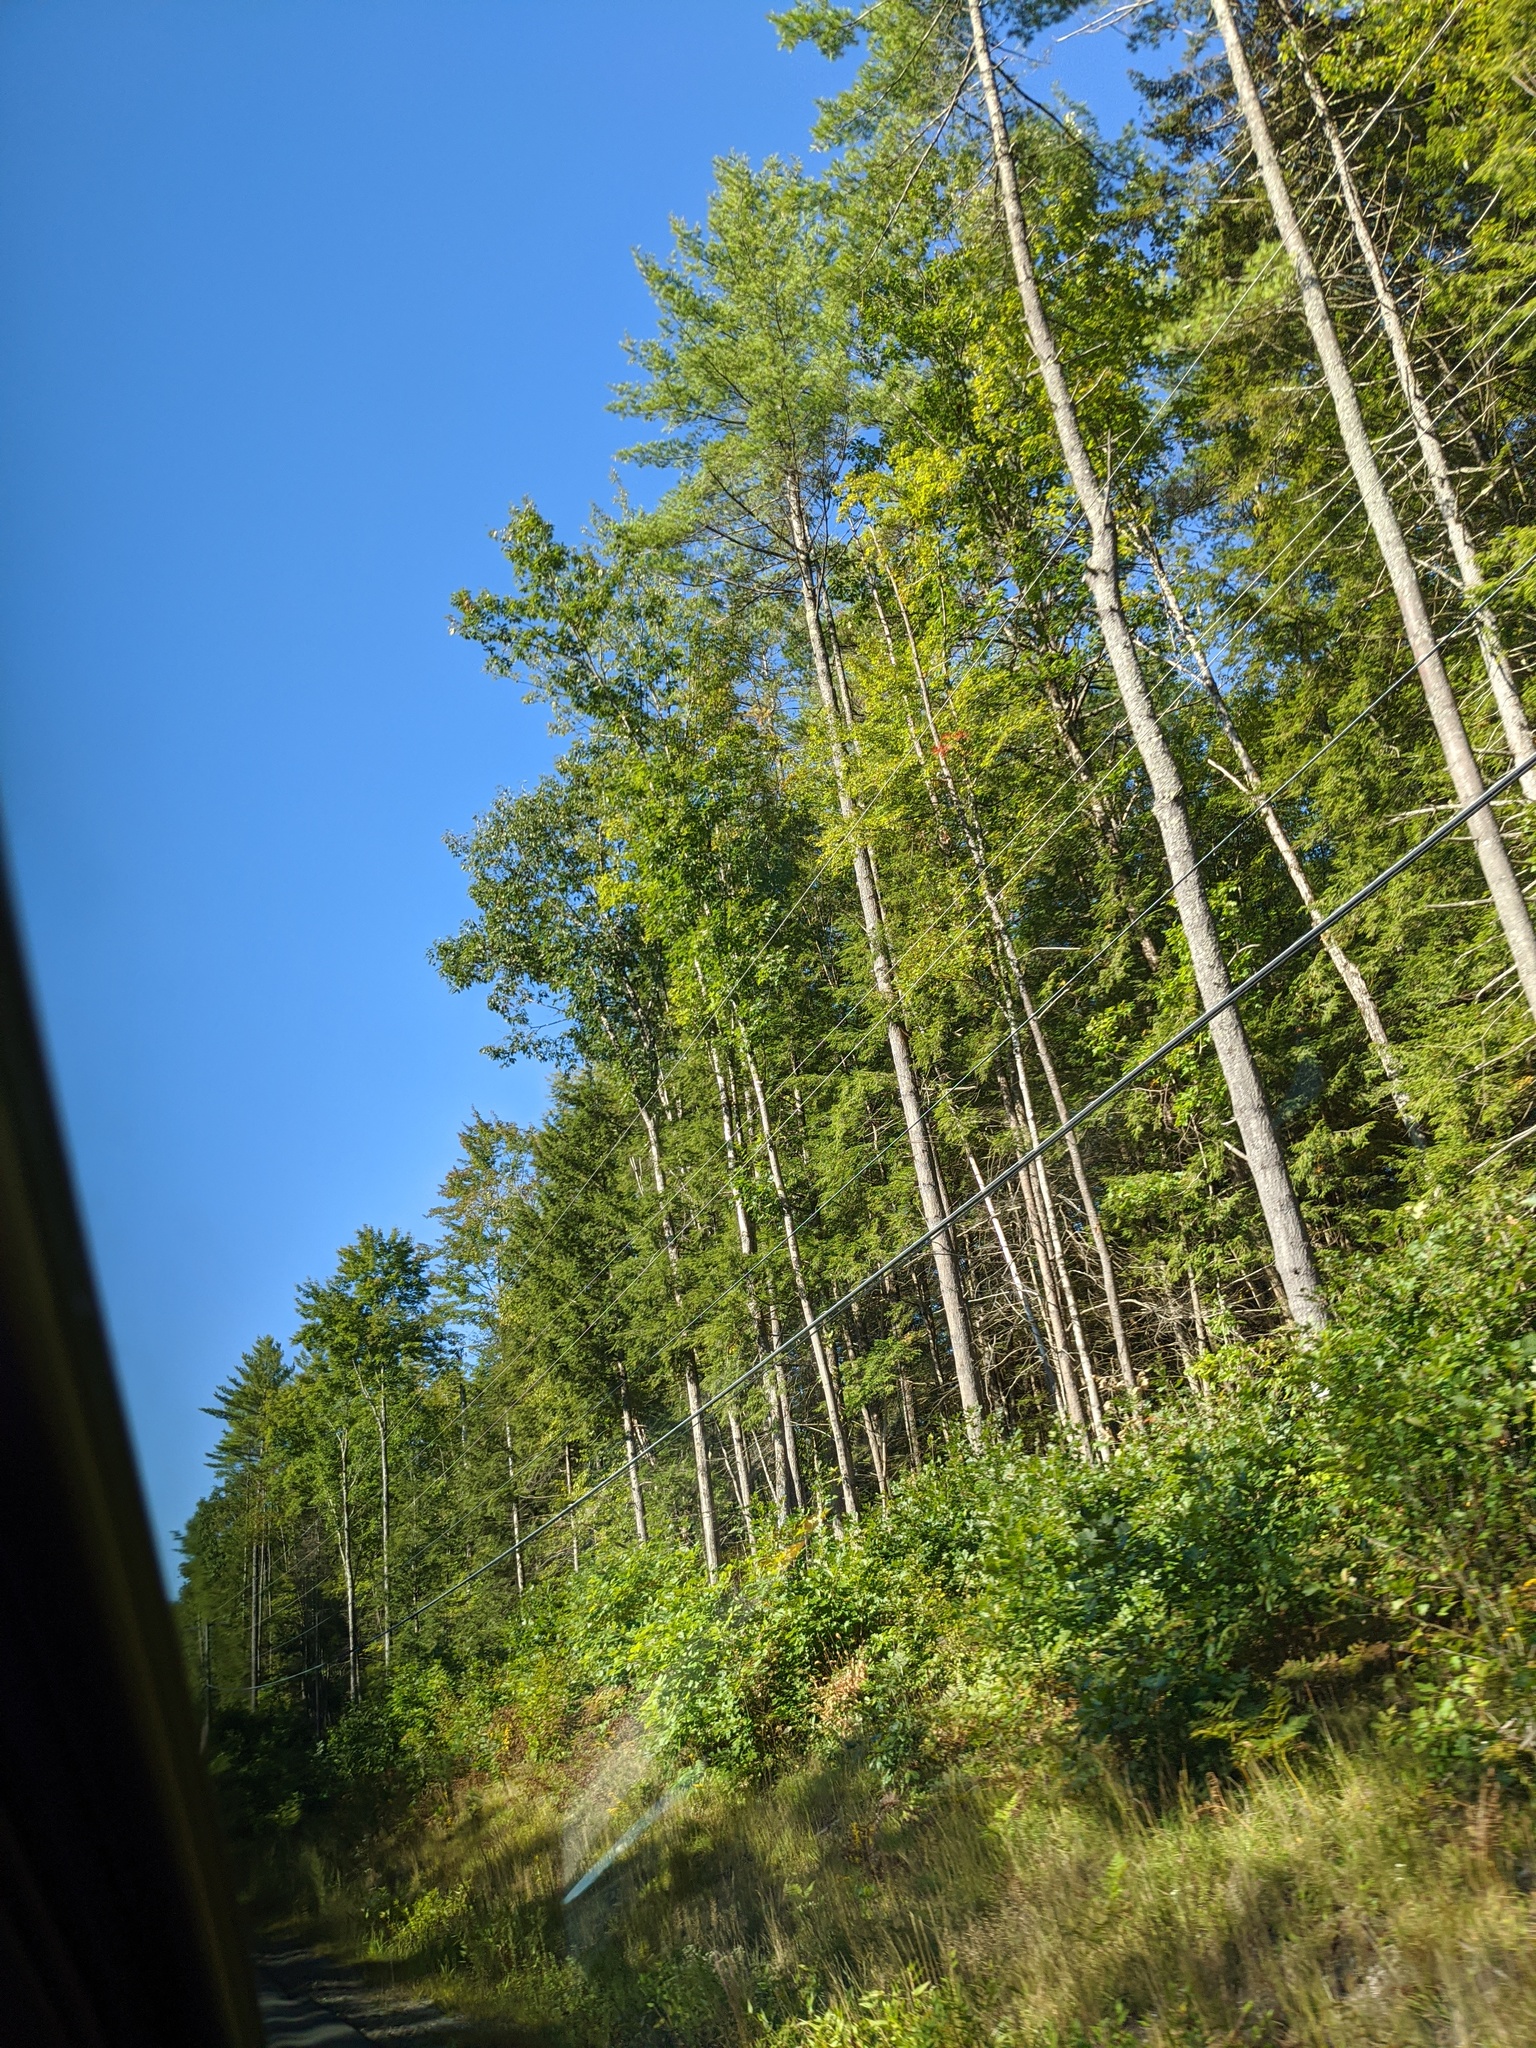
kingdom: Plantae
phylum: Tracheophyta
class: Pinopsida
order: Pinales
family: Pinaceae
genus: Pinus
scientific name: Pinus strobus
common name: Weymouth pine
